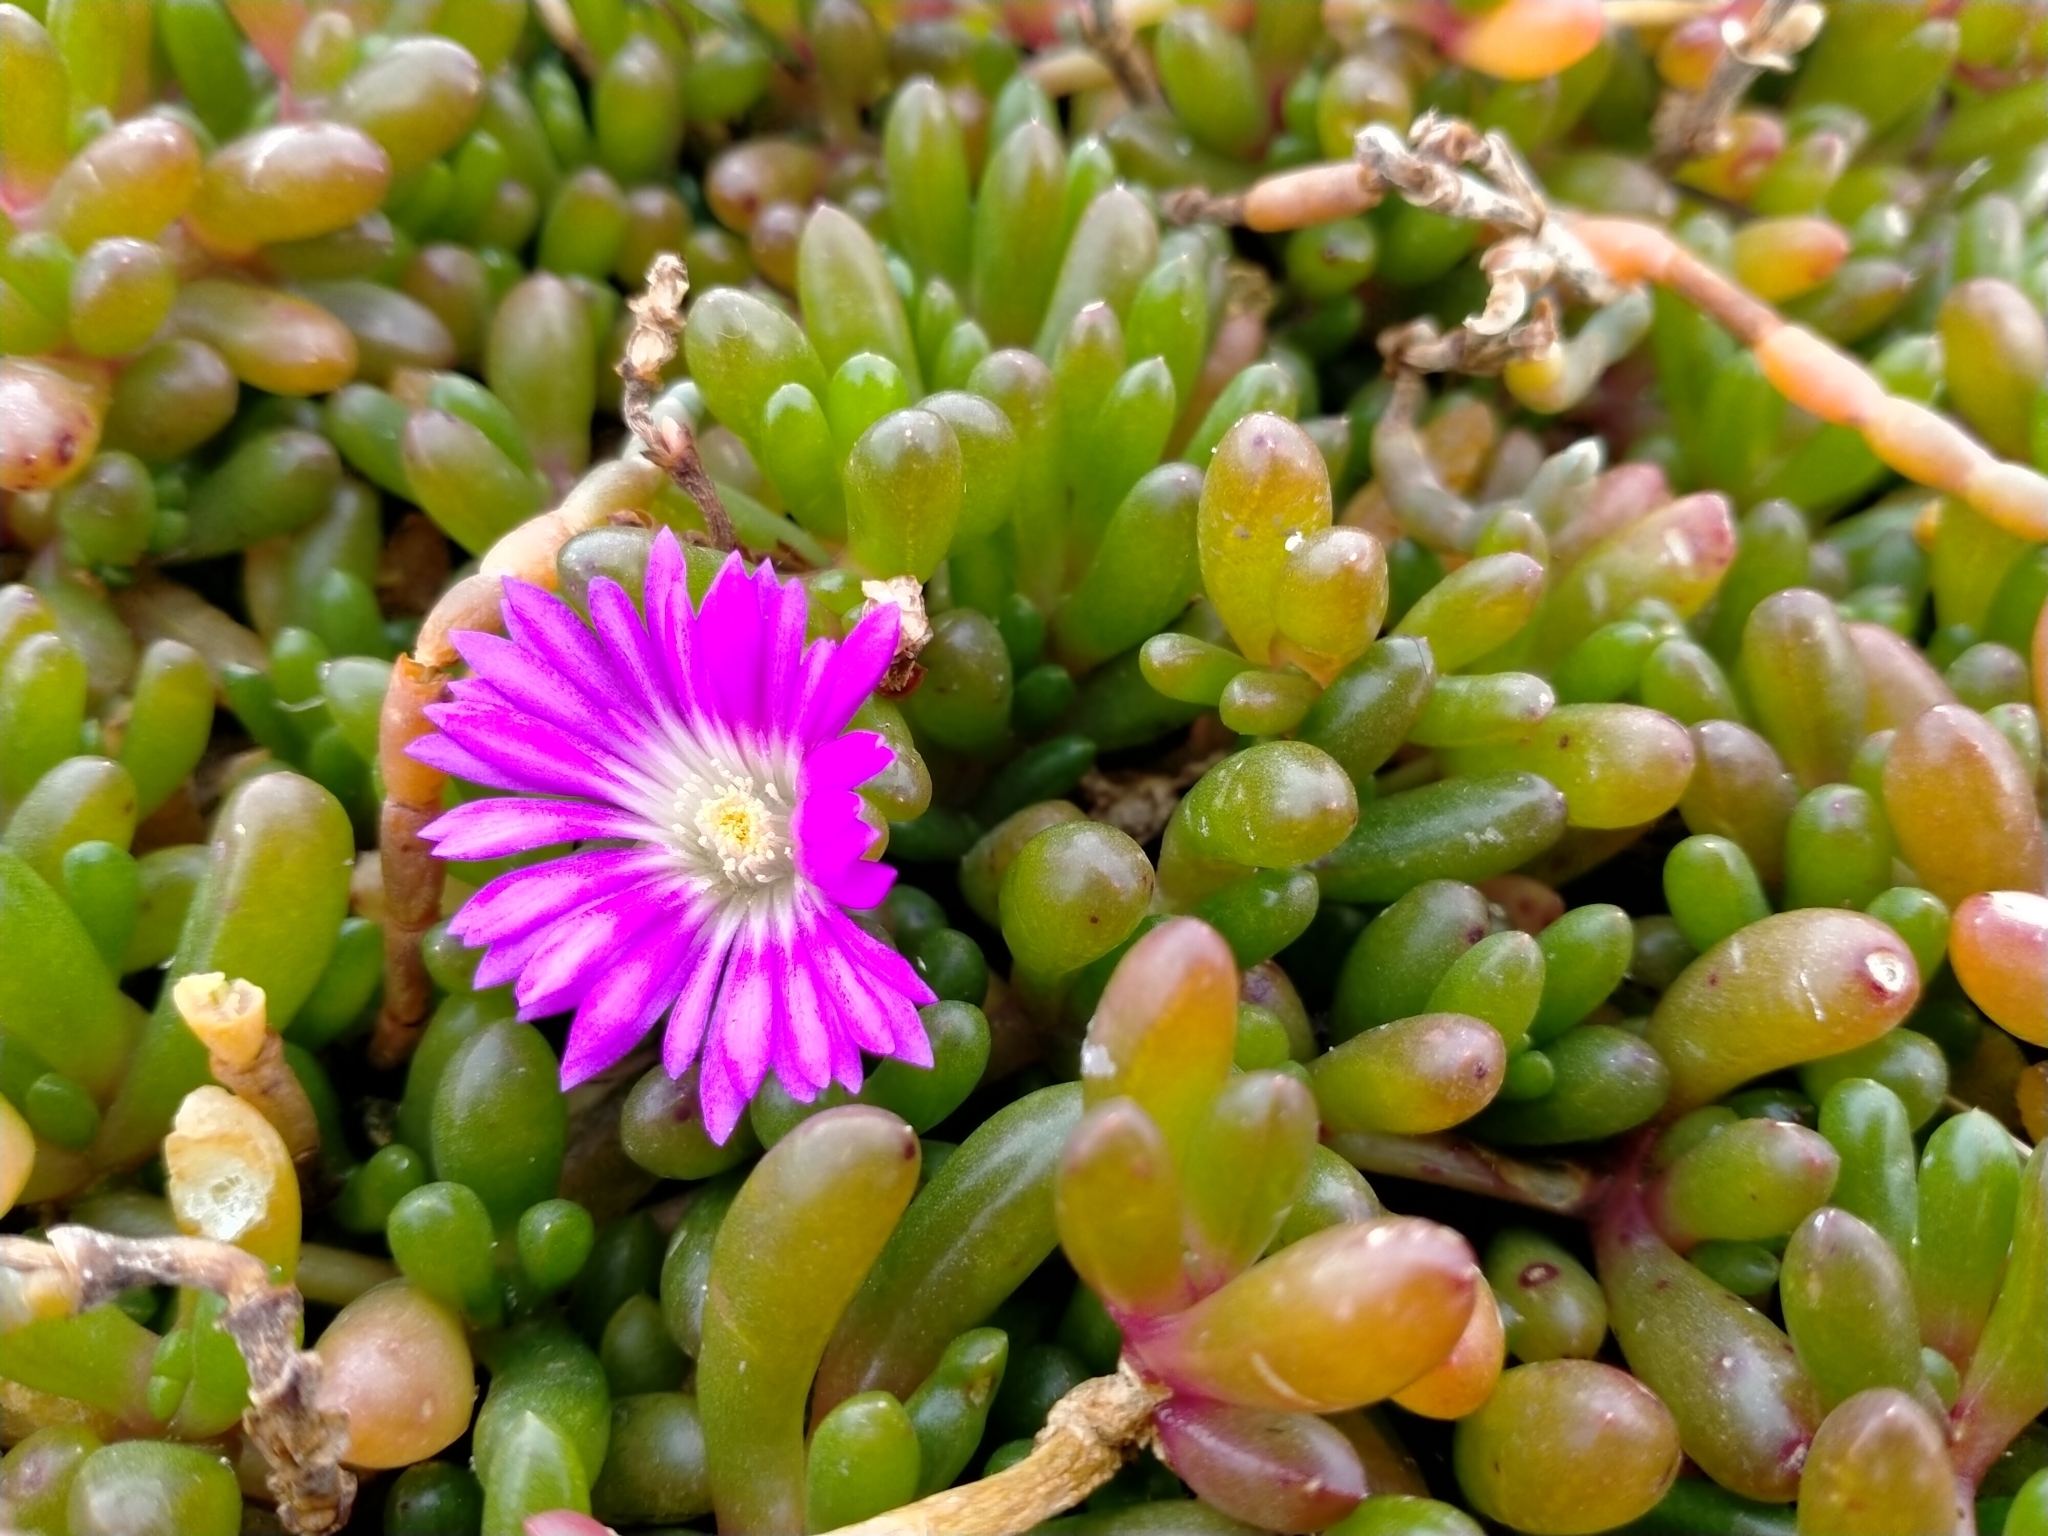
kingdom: Plantae
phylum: Tracheophyta
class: Magnoliopsida
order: Caryophyllales
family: Aizoaceae
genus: Disphyma
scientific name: Disphyma clavellatum
